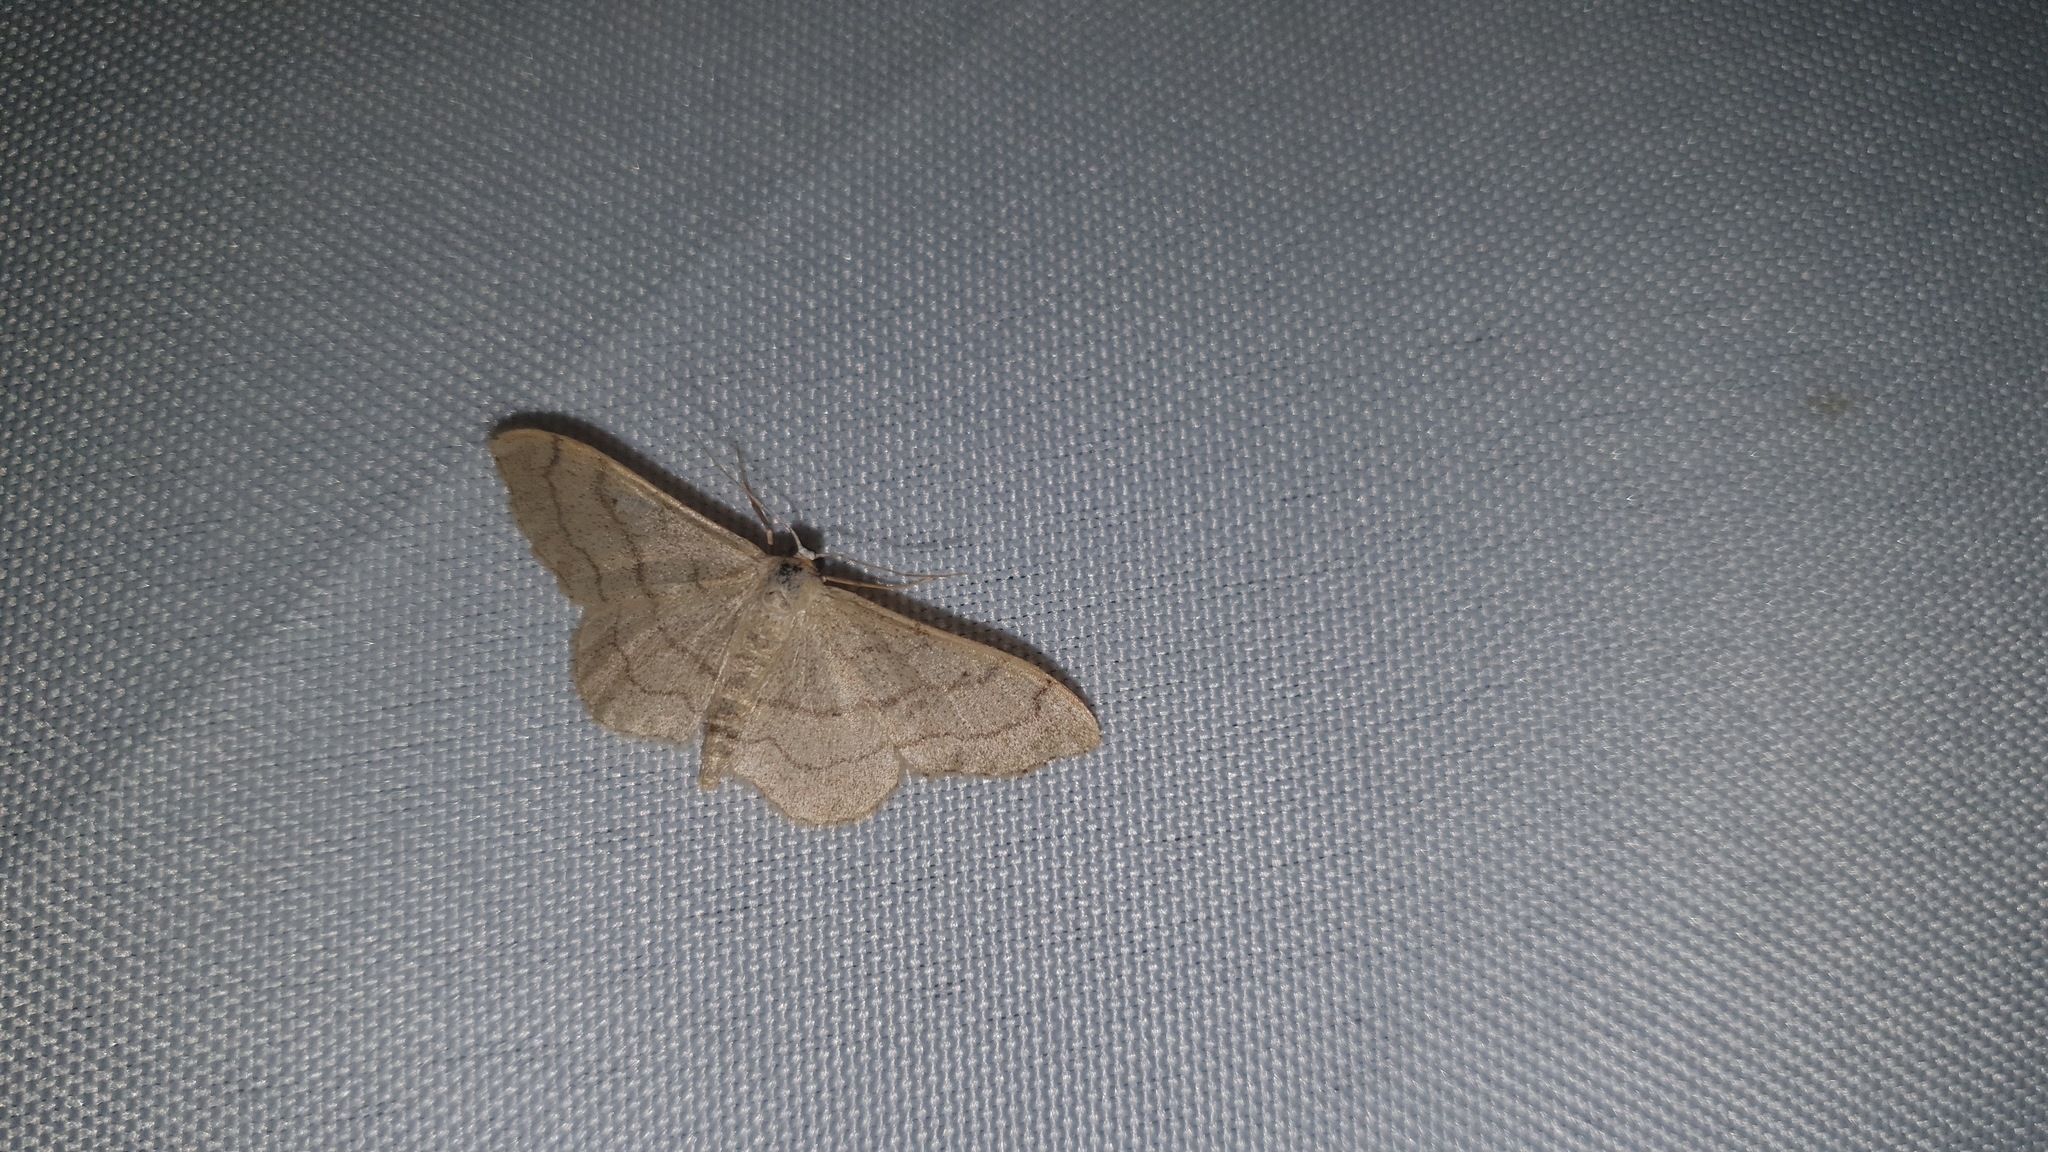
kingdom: Animalia
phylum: Arthropoda
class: Insecta
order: Lepidoptera
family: Geometridae
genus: Idaea
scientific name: Idaea aversata
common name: Riband wave
